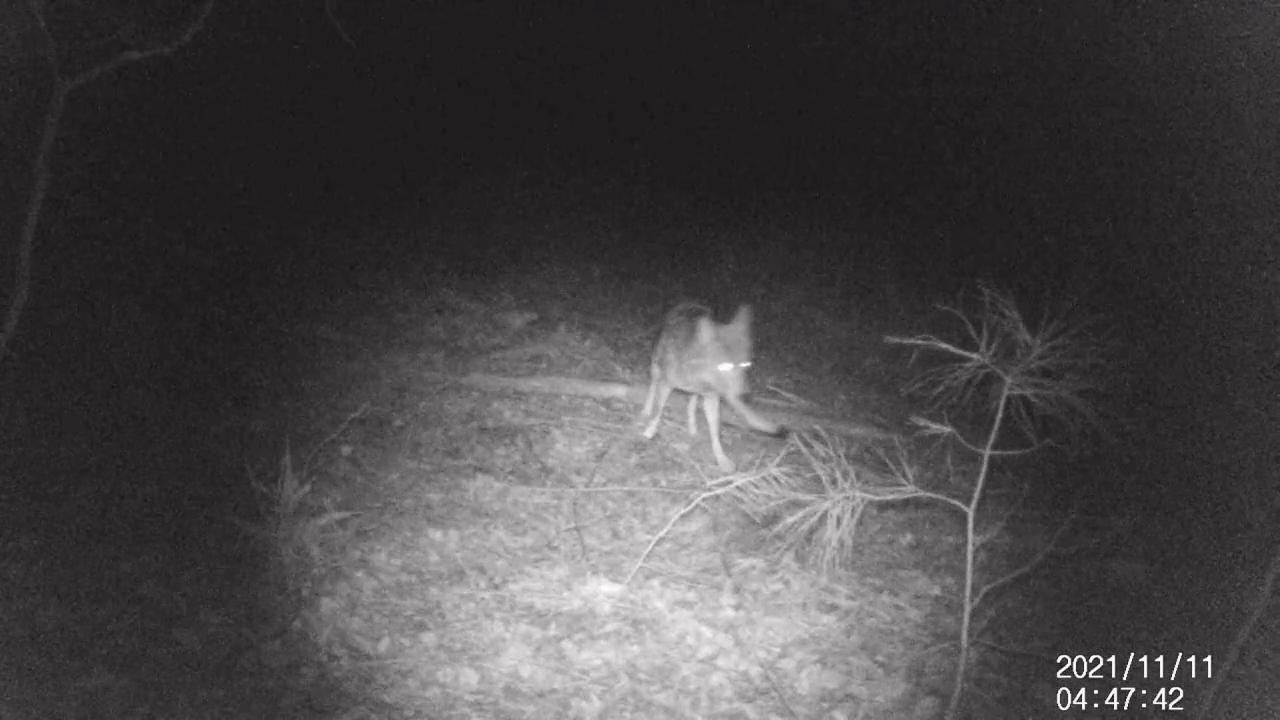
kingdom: Animalia
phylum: Chordata
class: Mammalia
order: Carnivora
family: Canidae
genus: Canis
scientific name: Canis latrans
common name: Coyote
